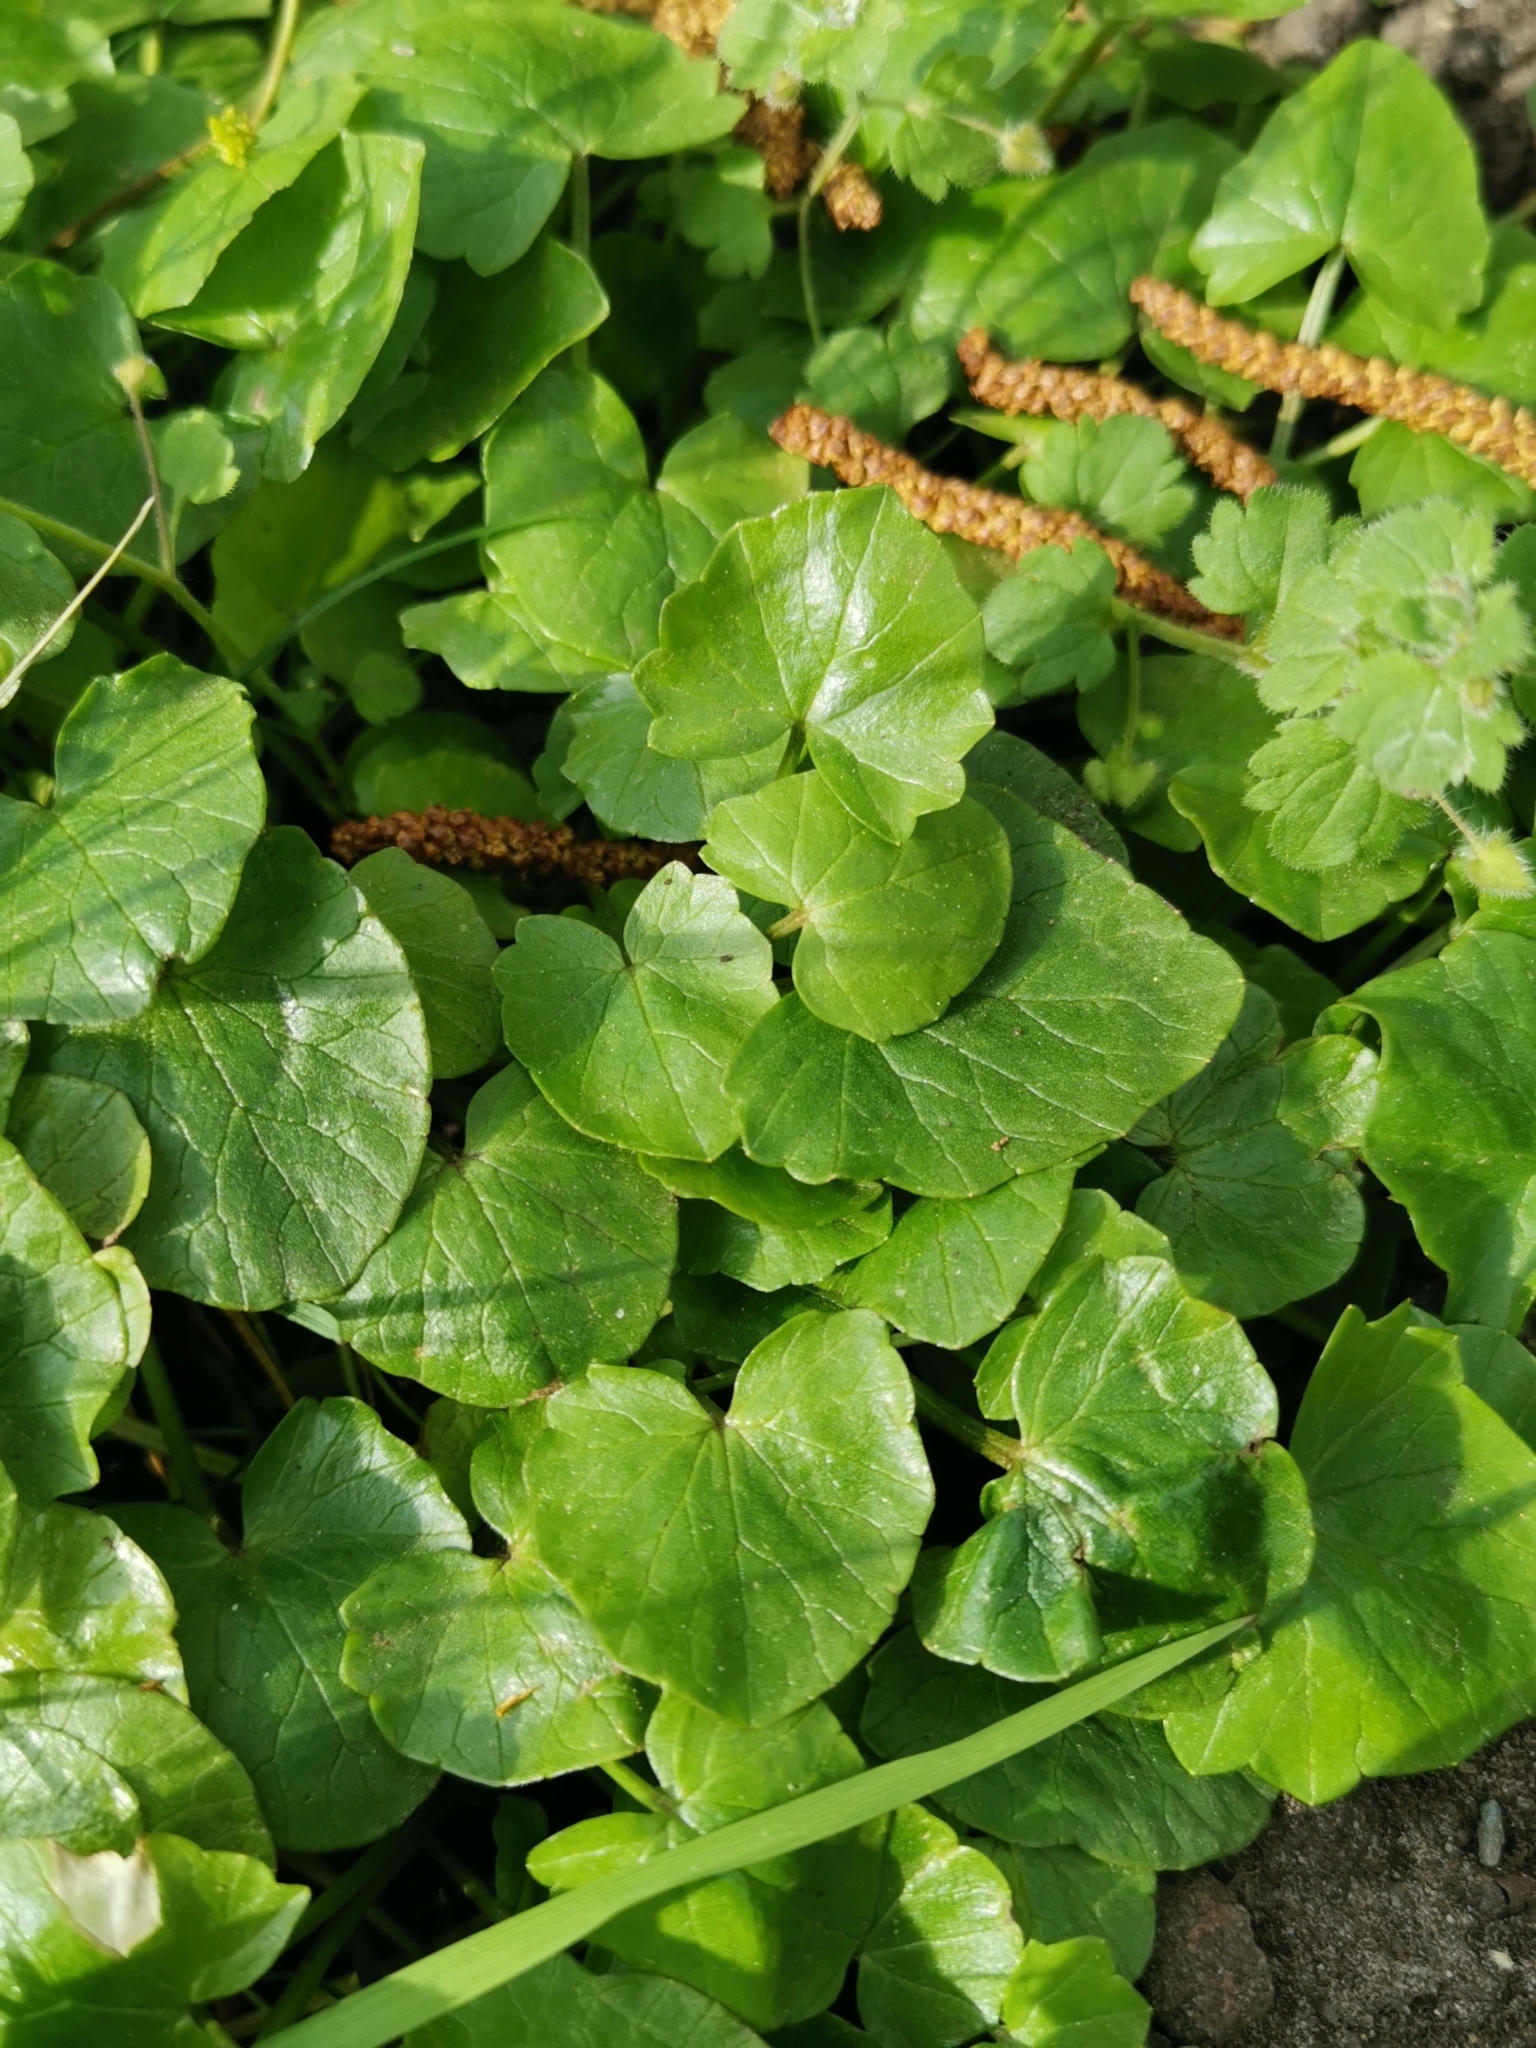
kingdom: Plantae
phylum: Tracheophyta
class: Magnoliopsida
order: Ranunculales
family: Ranunculaceae
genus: Ficaria
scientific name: Ficaria verna
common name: Lesser celandine
